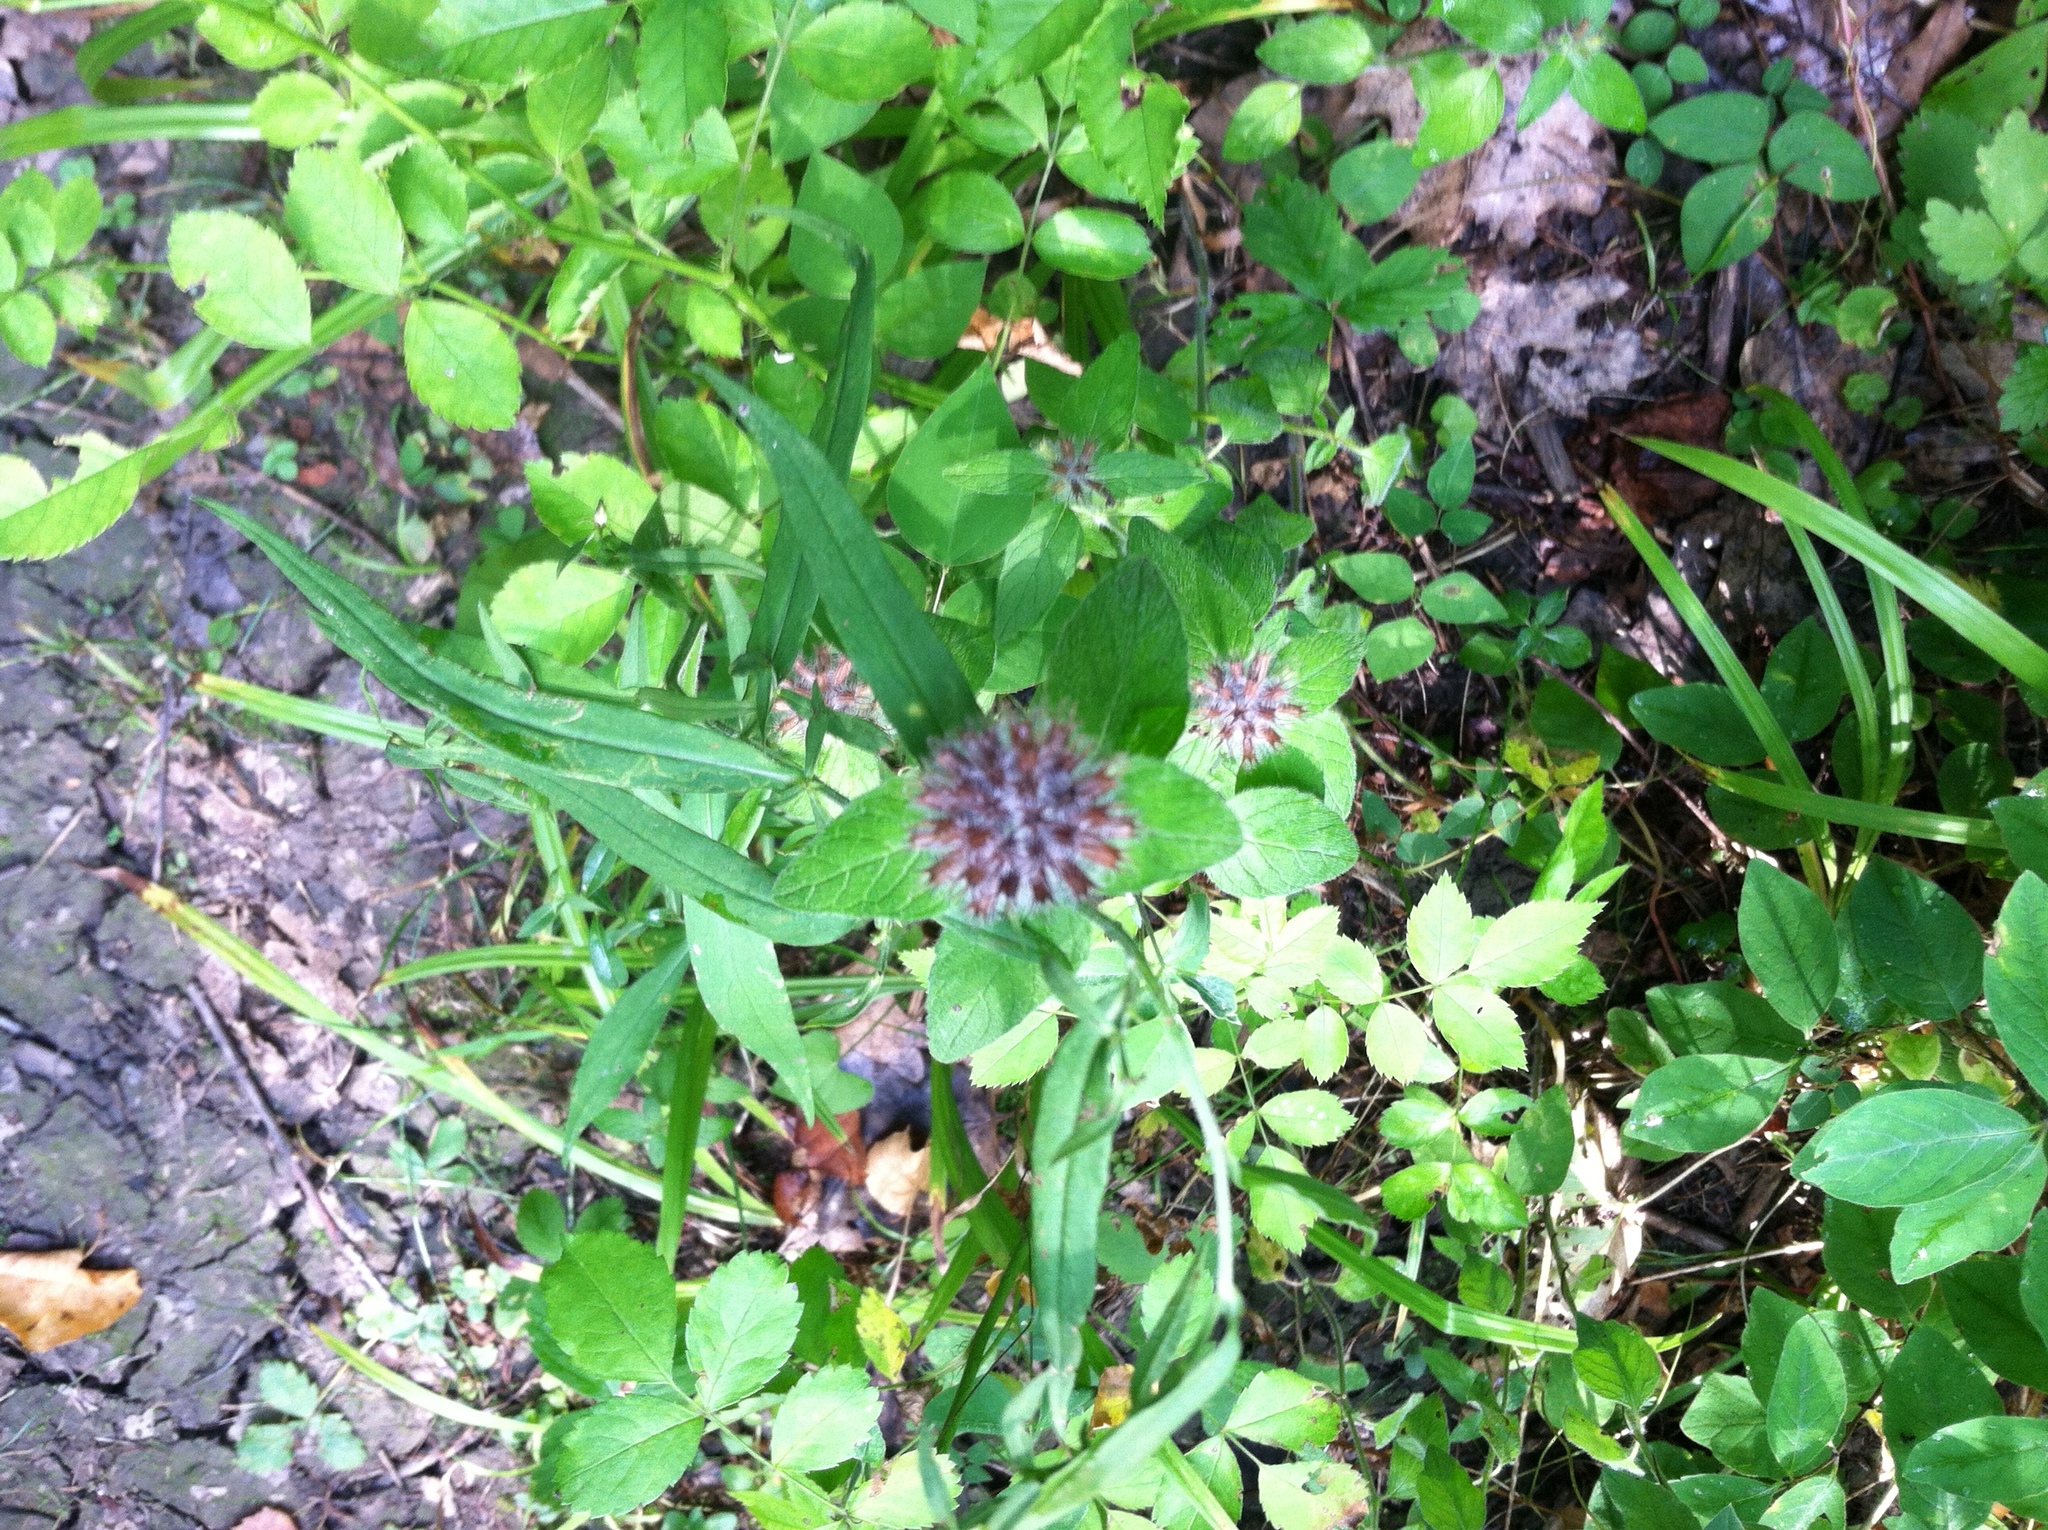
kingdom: Plantae
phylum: Tracheophyta
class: Magnoliopsida
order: Lamiales
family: Lamiaceae
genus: Clinopodium
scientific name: Clinopodium vulgare
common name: Wild basil
